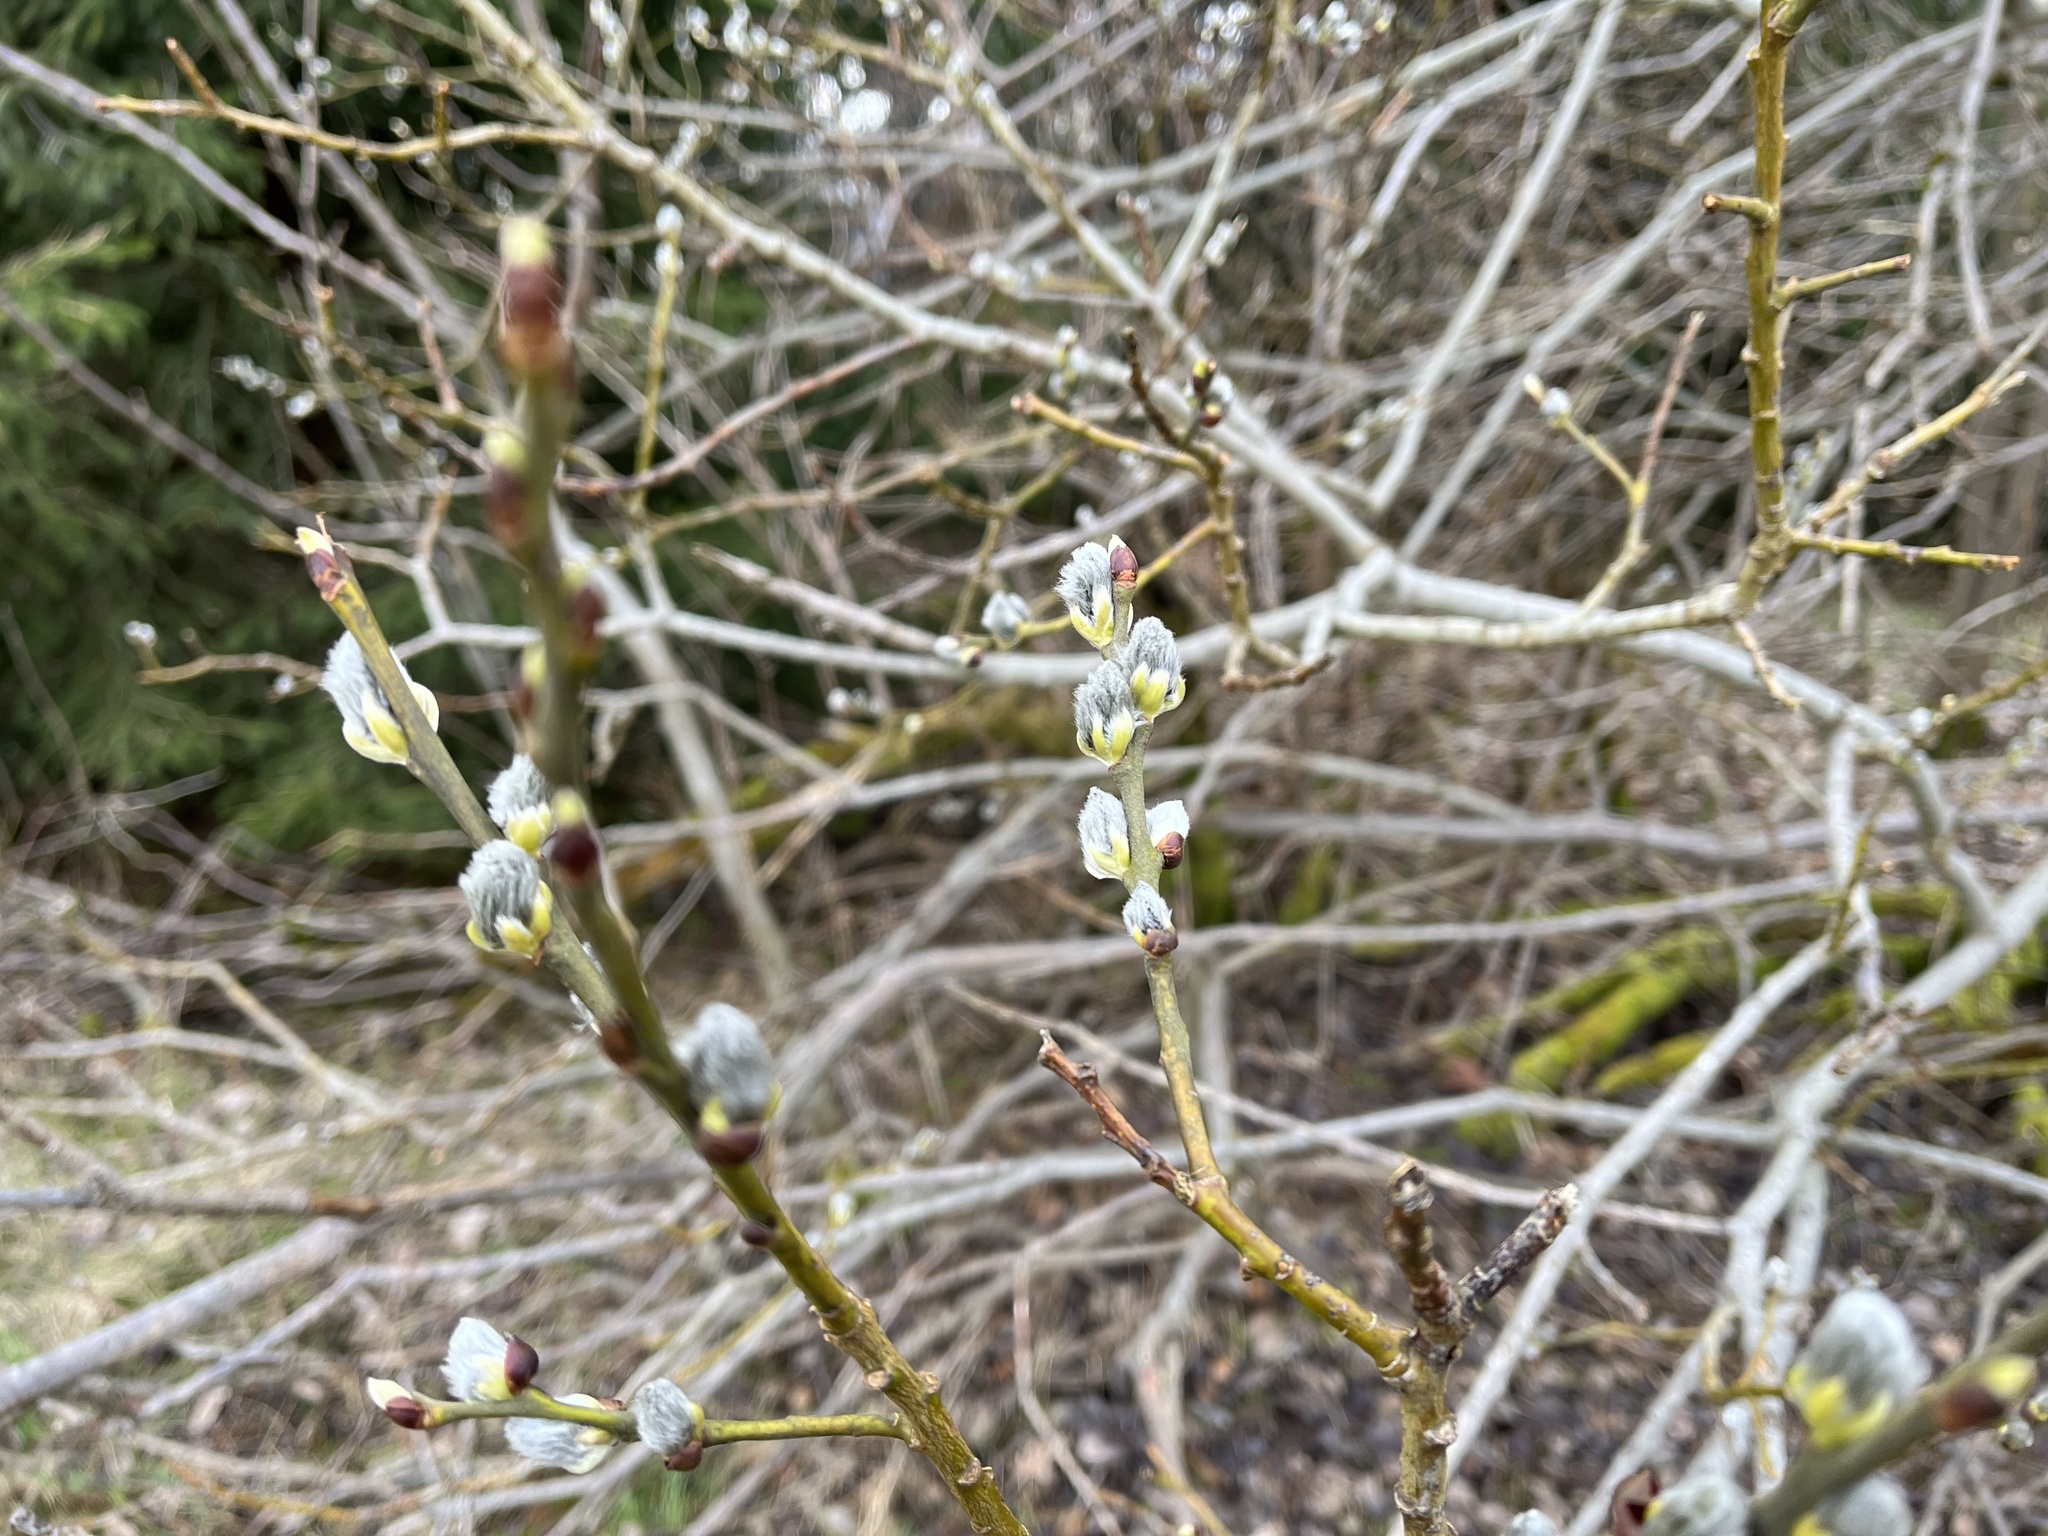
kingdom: Plantae
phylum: Tracheophyta
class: Magnoliopsida
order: Malpighiales
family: Salicaceae
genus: Salix
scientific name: Salix caprea
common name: Goat willow
